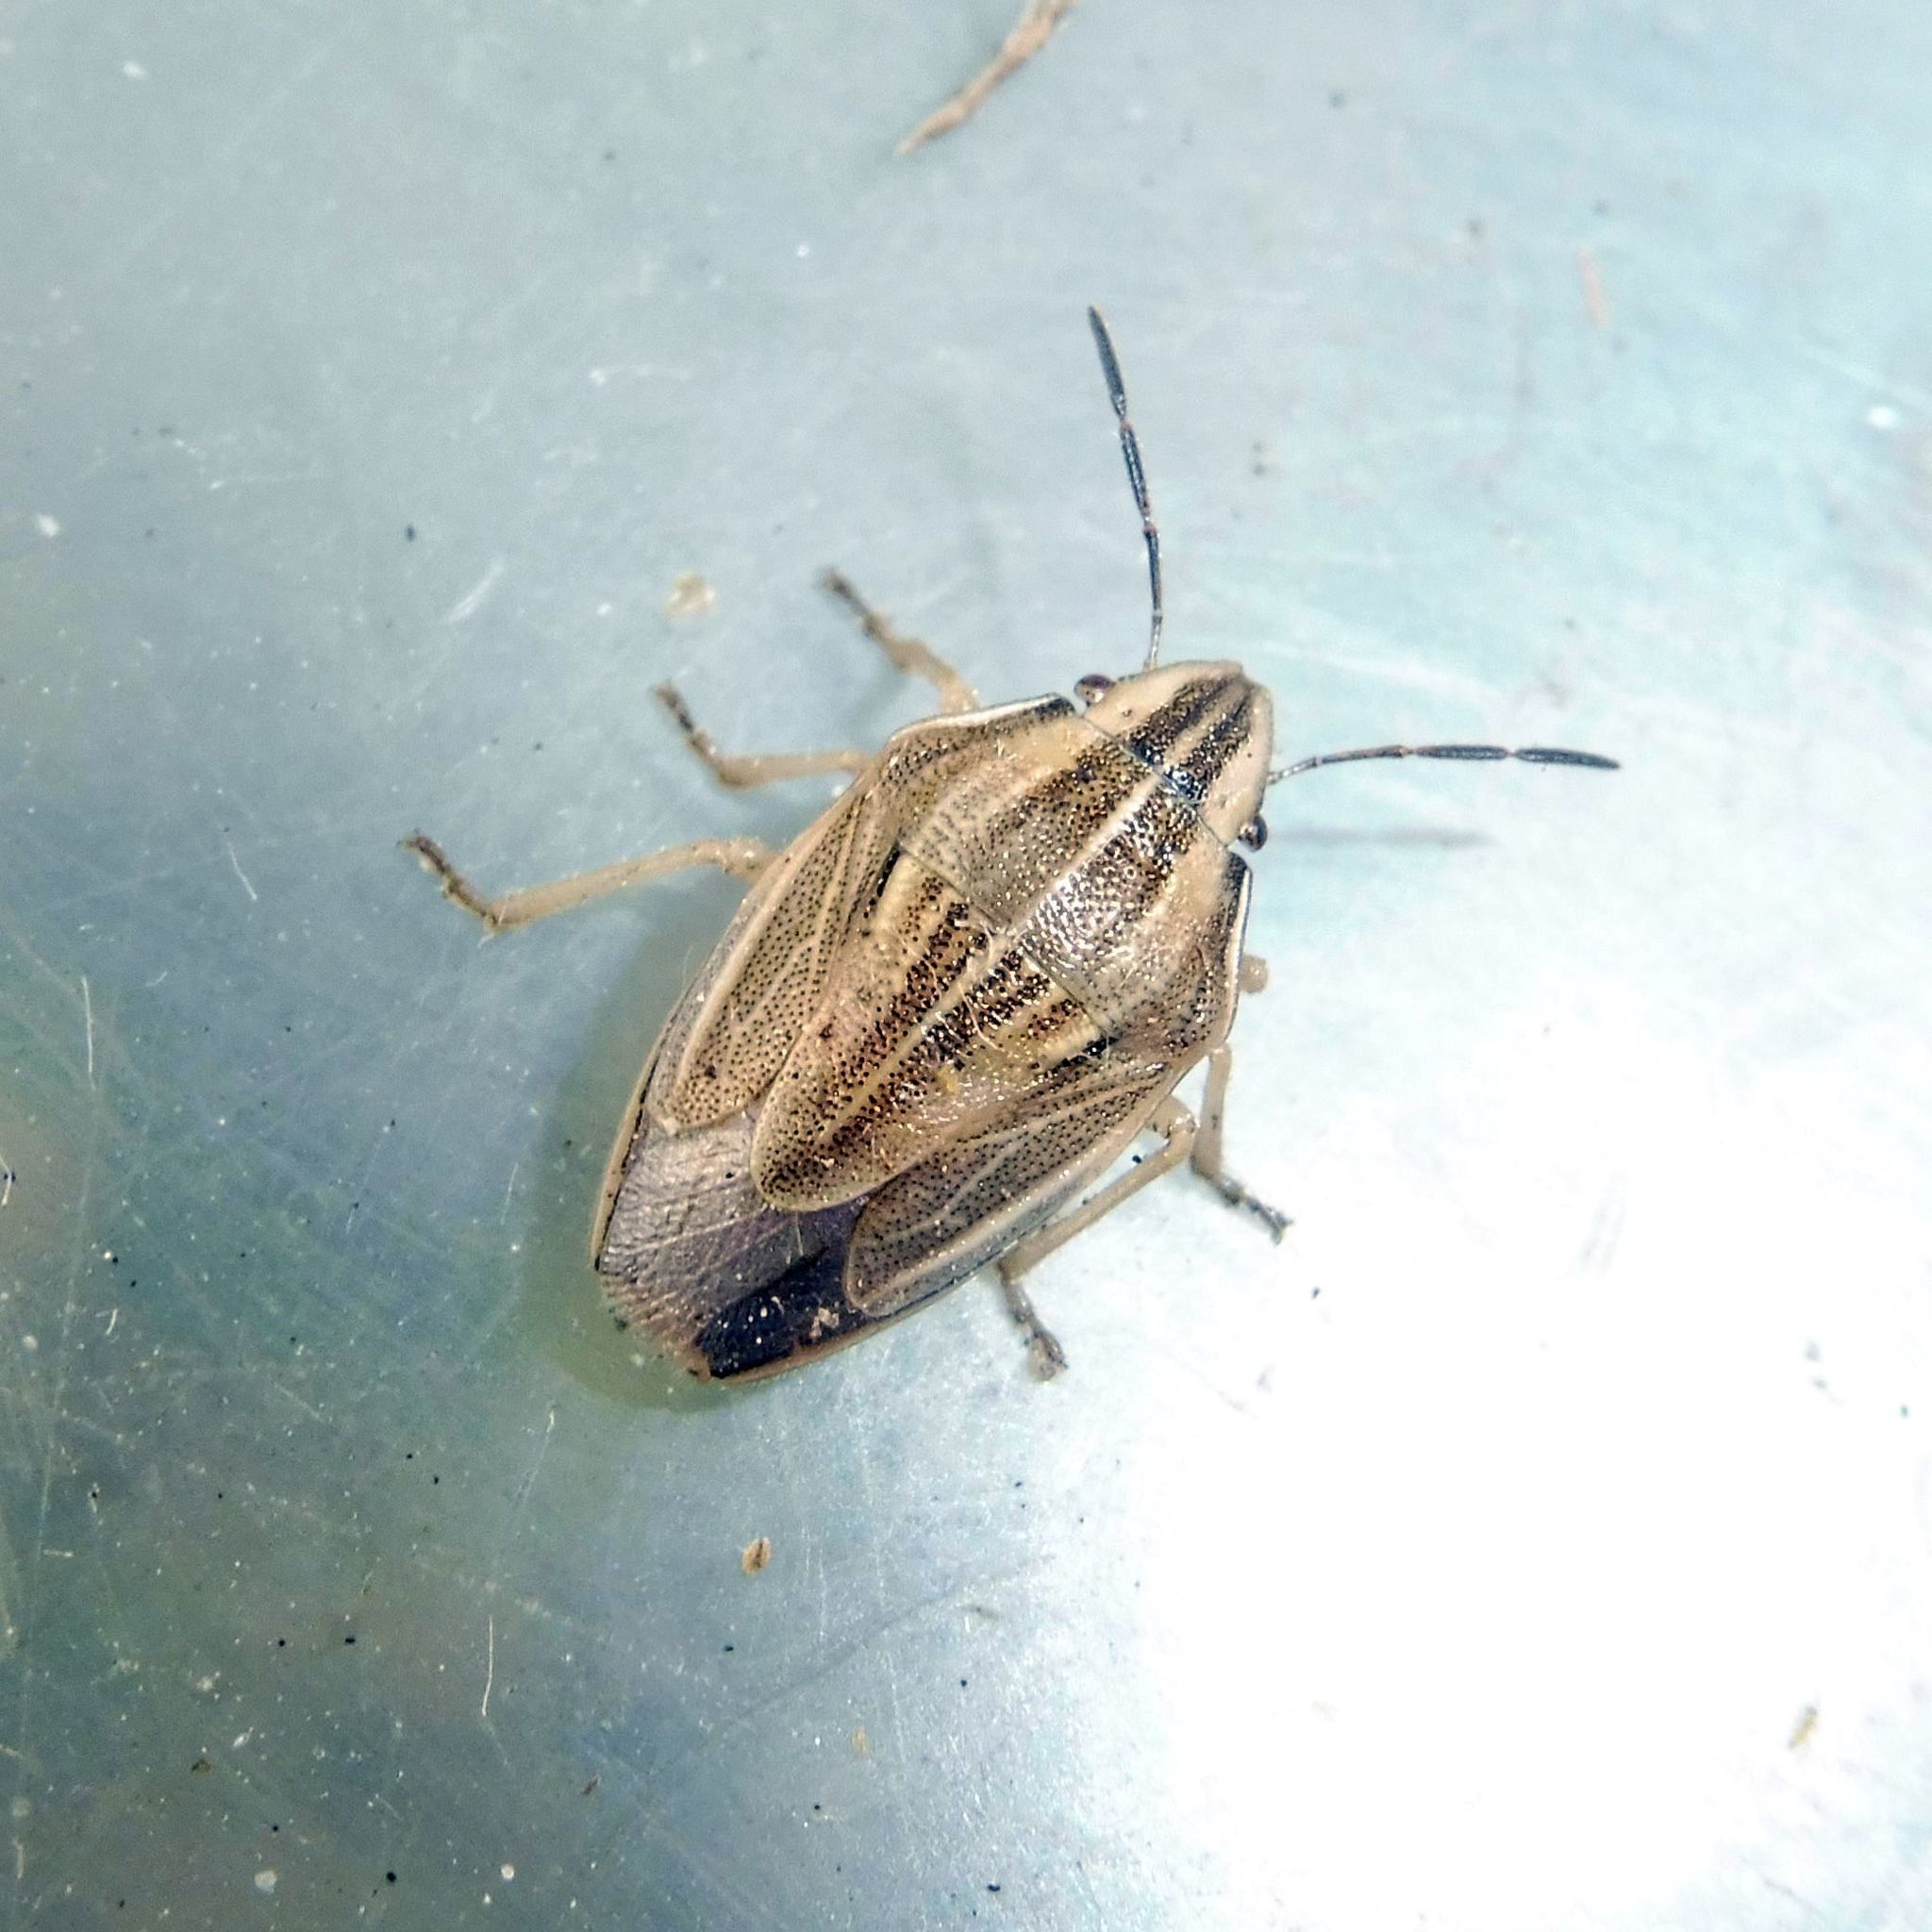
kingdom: Animalia
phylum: Arthropoda
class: Insecta
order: Hemiptera
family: Pentatomidae
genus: Aelia
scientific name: Aelia acuminata
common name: Bishop's mitre
